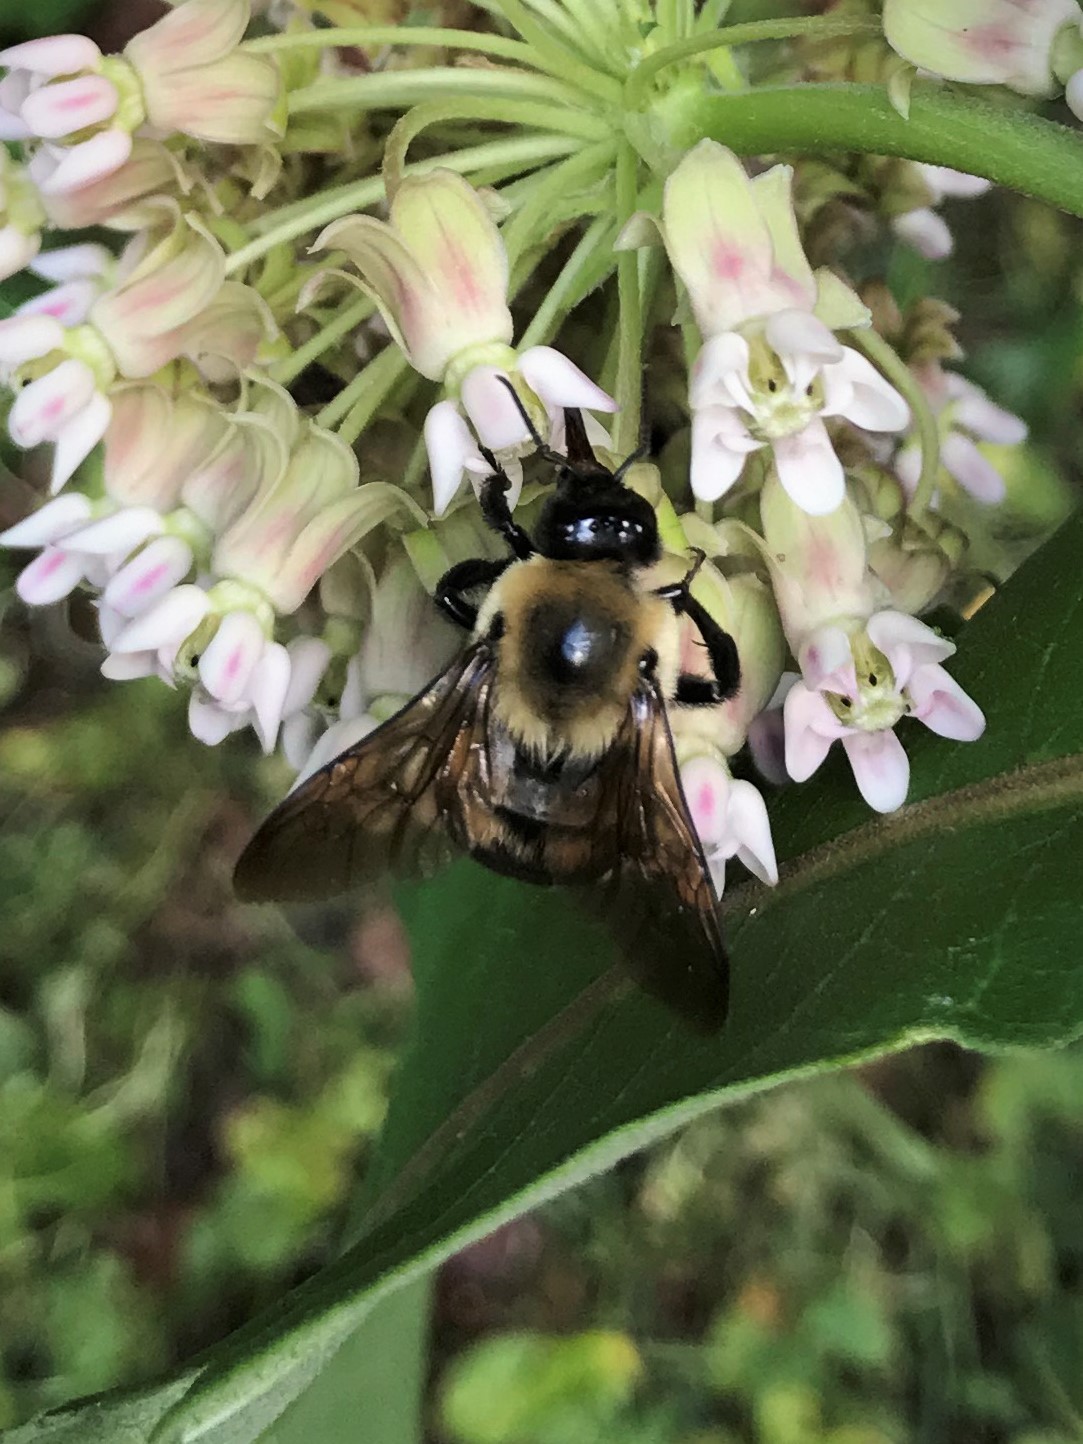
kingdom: Animalia
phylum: Arthropoda
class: Insecta
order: Hymenoptera
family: Apidae
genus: Bombus
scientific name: Bombus griseocollis
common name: Brown-belted bumble bee
